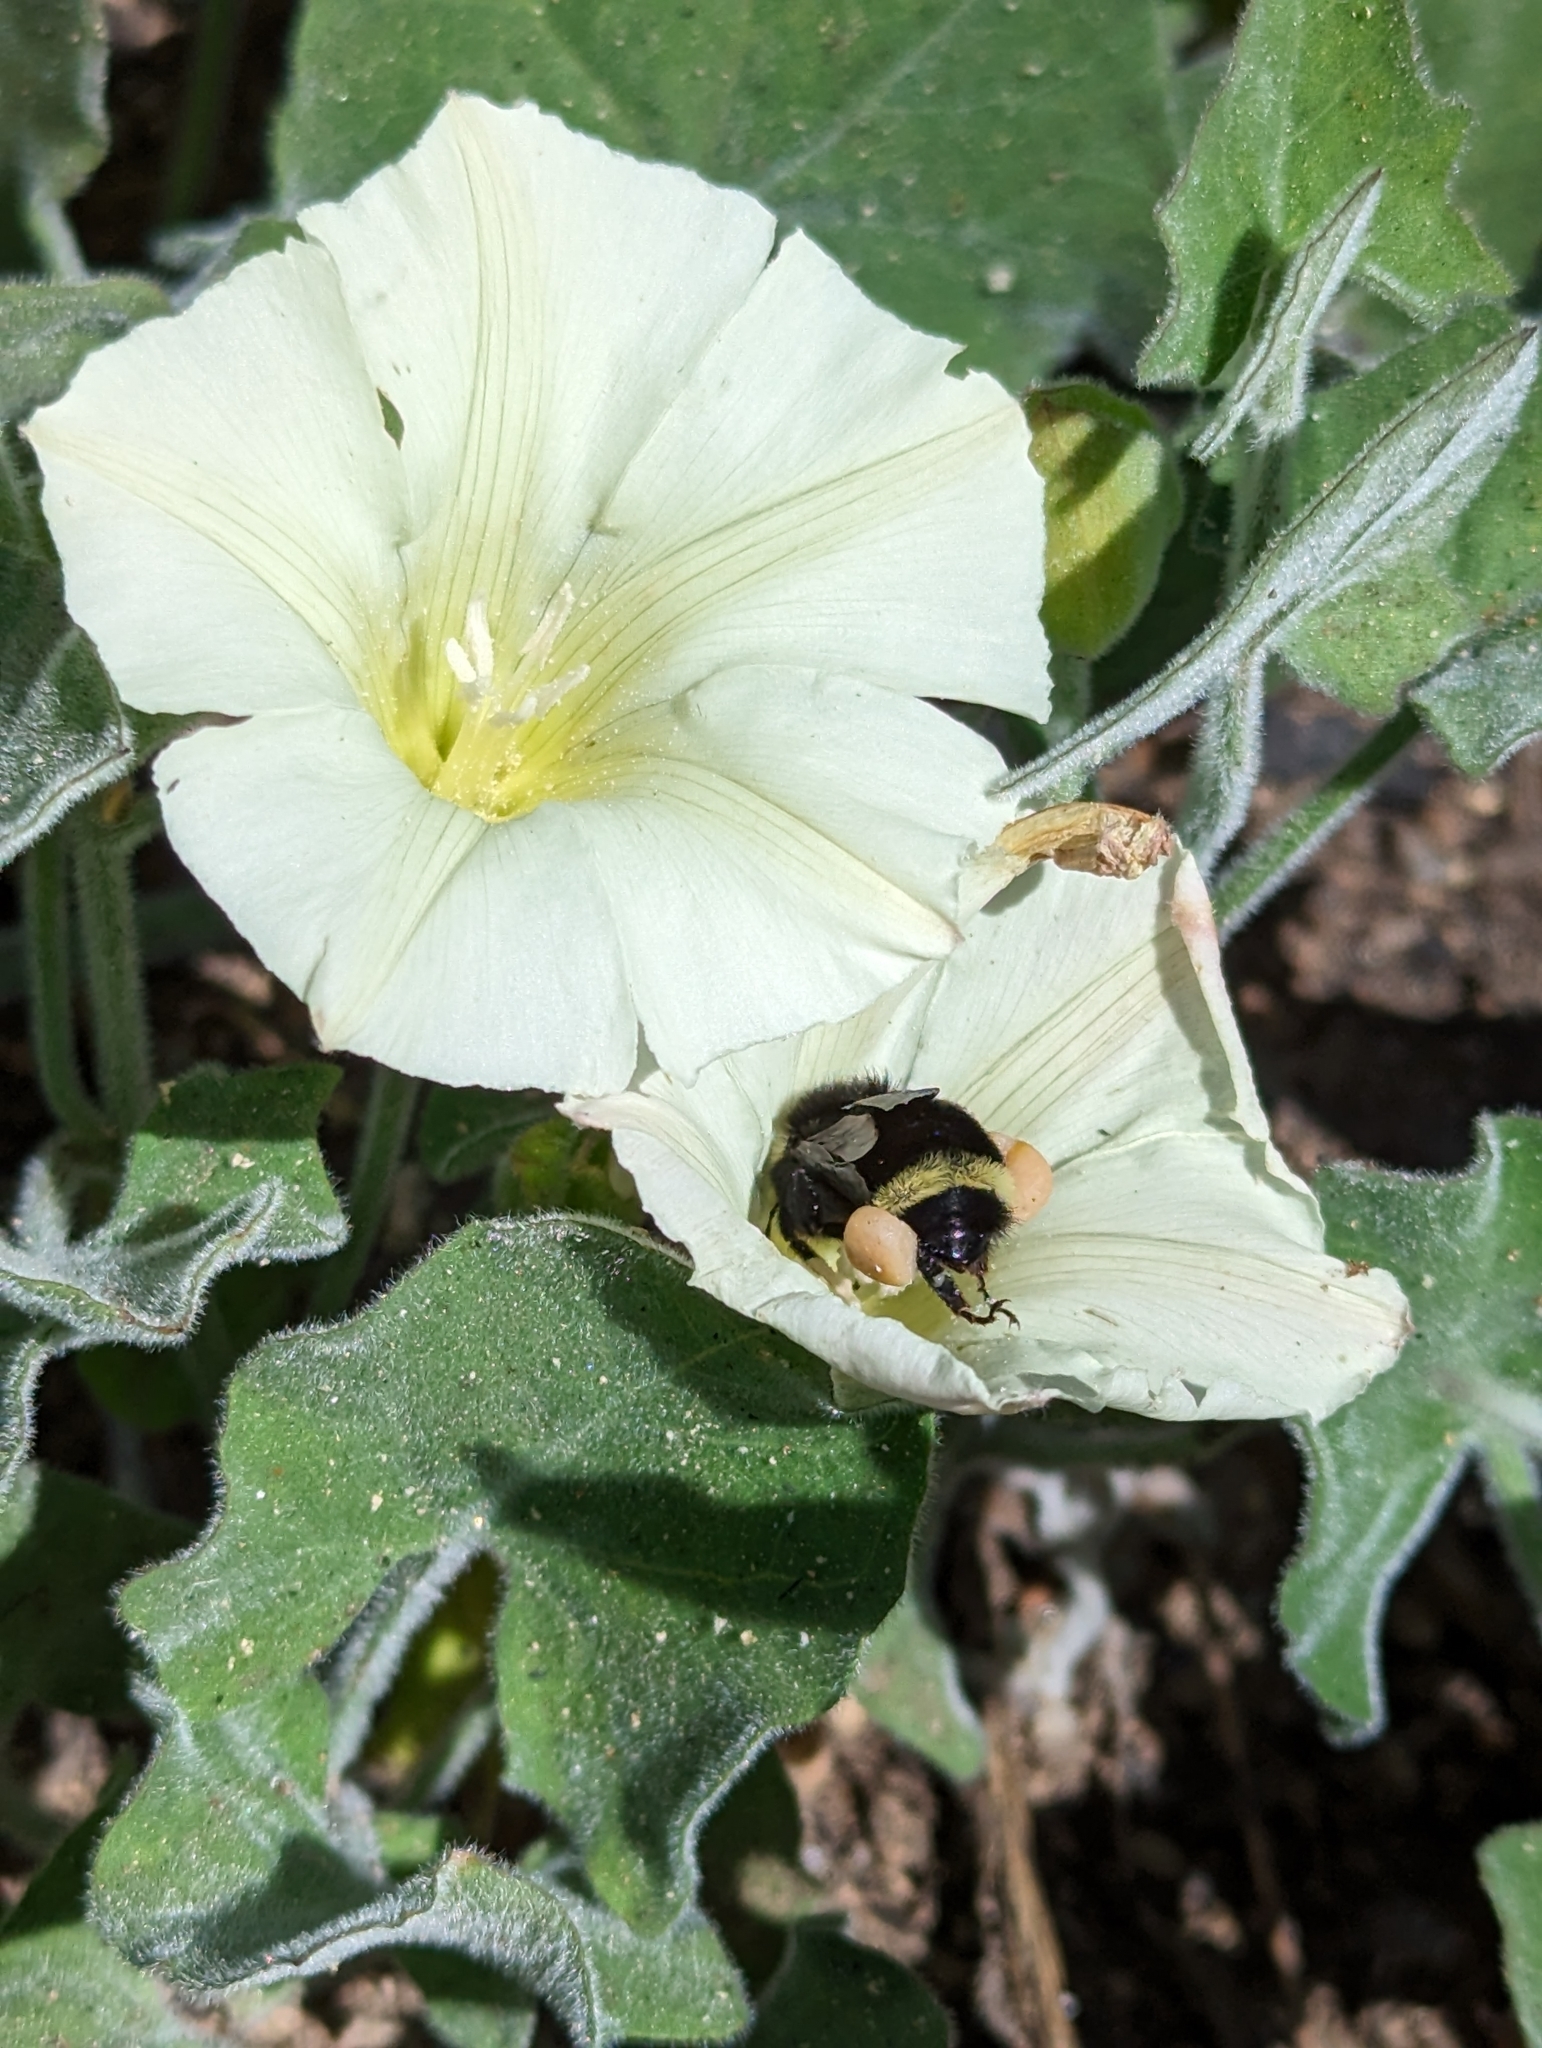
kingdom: Animalia
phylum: Arthropoda
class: Insecta
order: Hymenoptera
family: Apidae
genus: Bombus
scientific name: Bombus vosnesenskii
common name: Vosnesensky bumble bee
